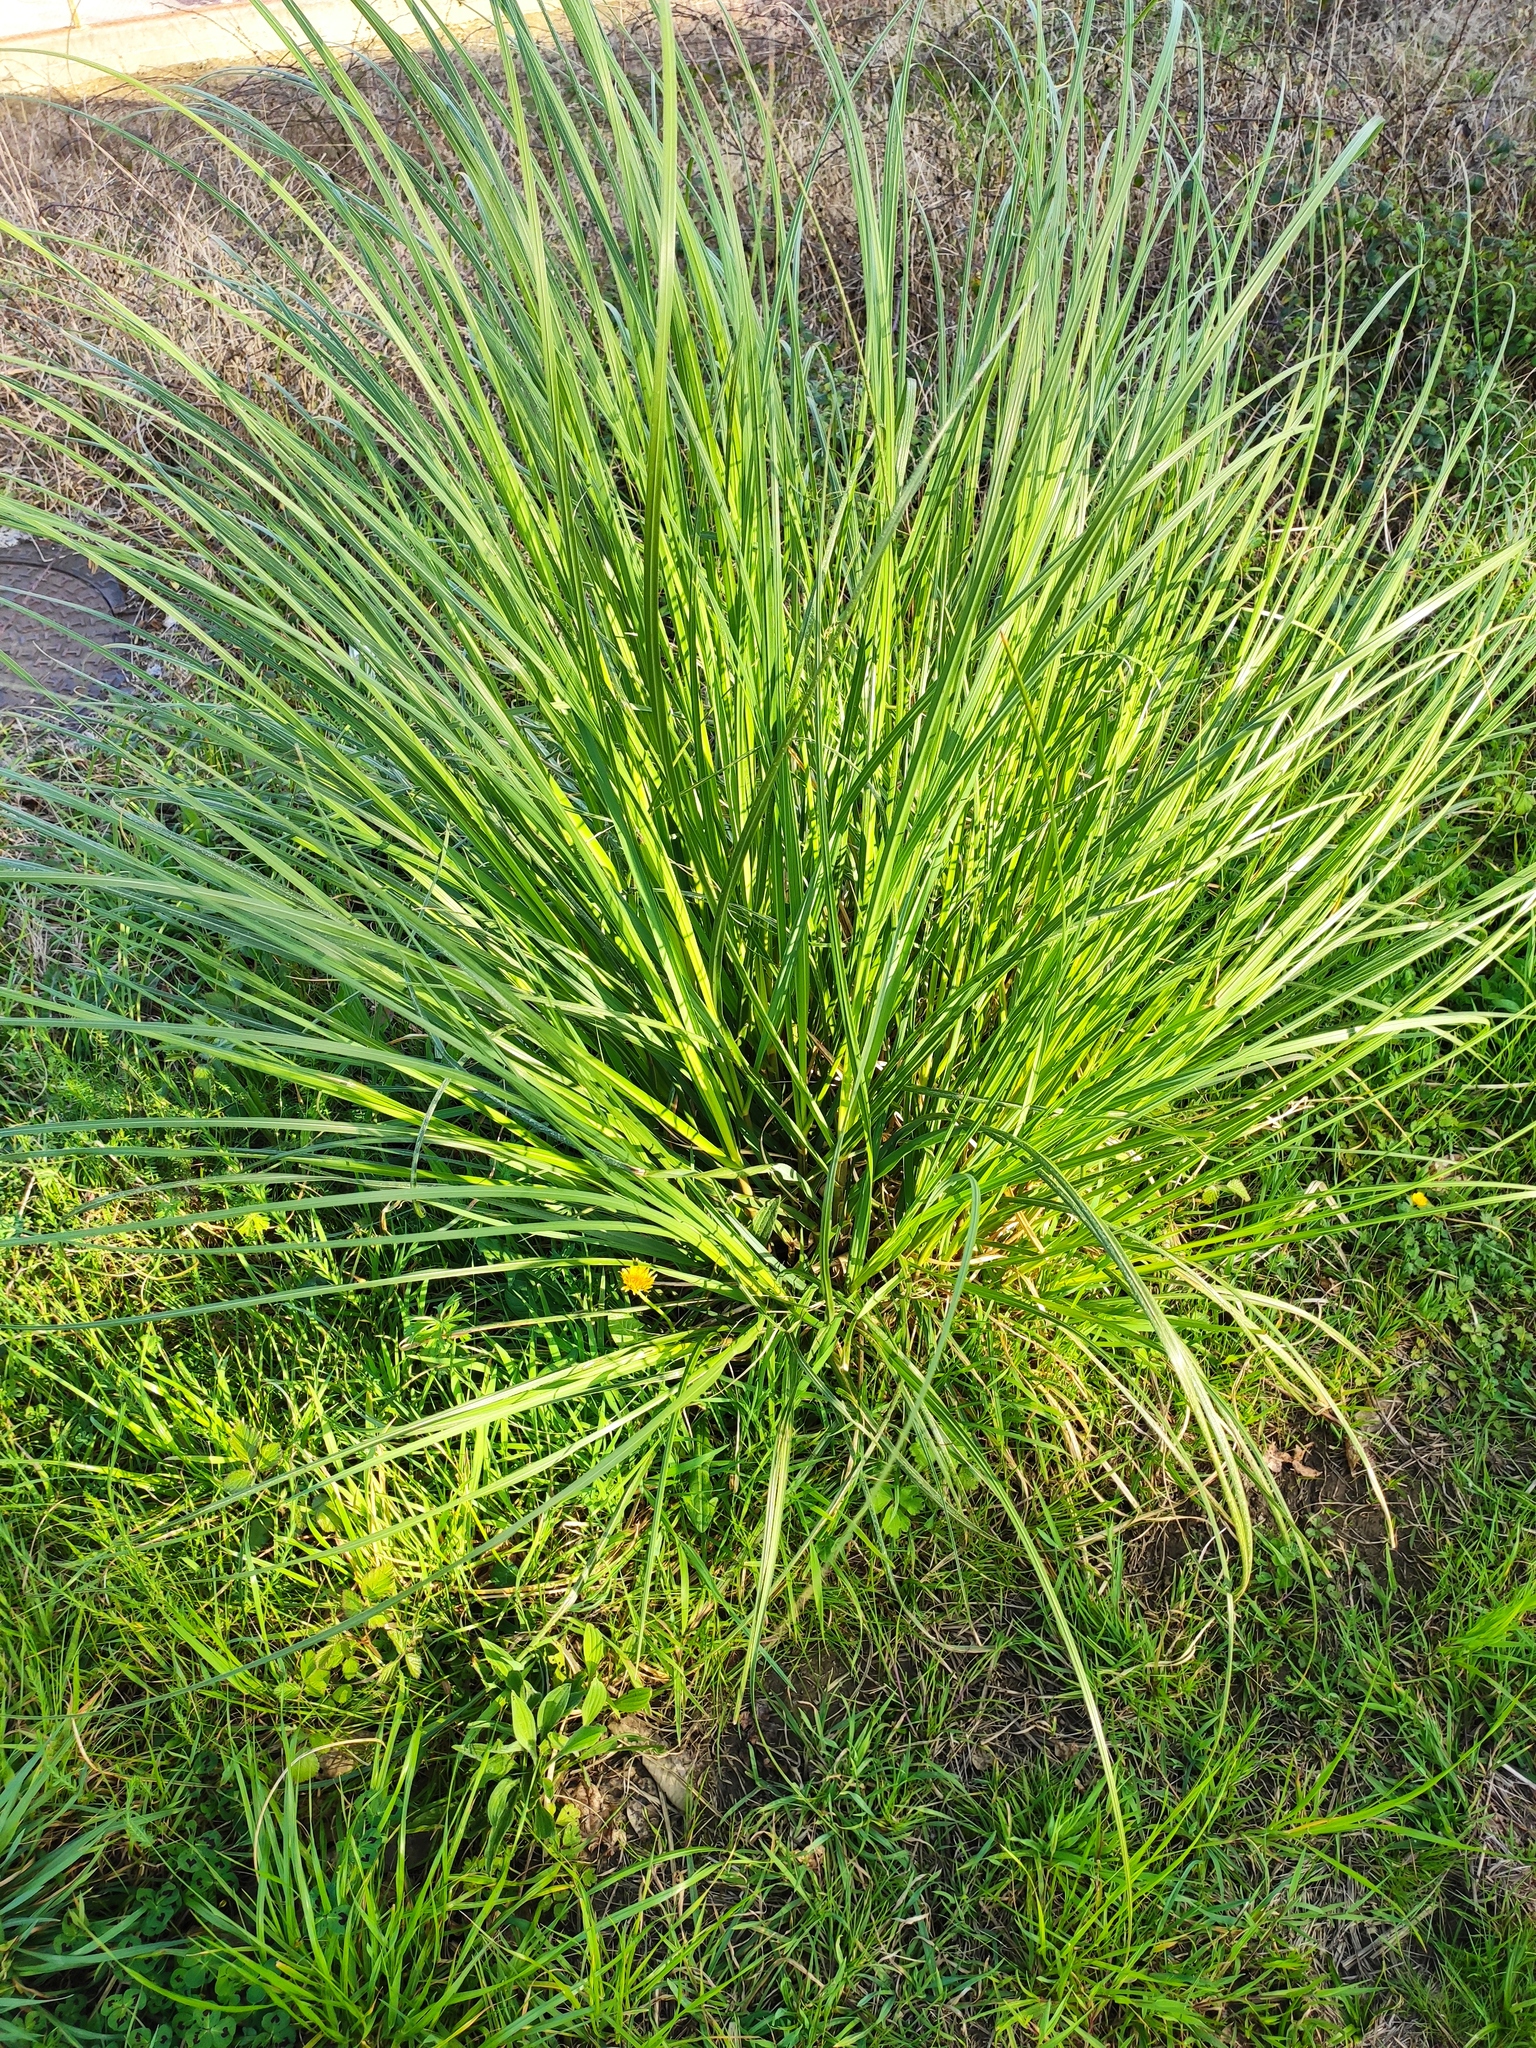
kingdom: Plantae
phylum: Tracheophyta
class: Liliopsida
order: Poales
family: Poaceae
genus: Cortaderia
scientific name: Cortaderia selloana
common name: Uruguayan pampas grass
